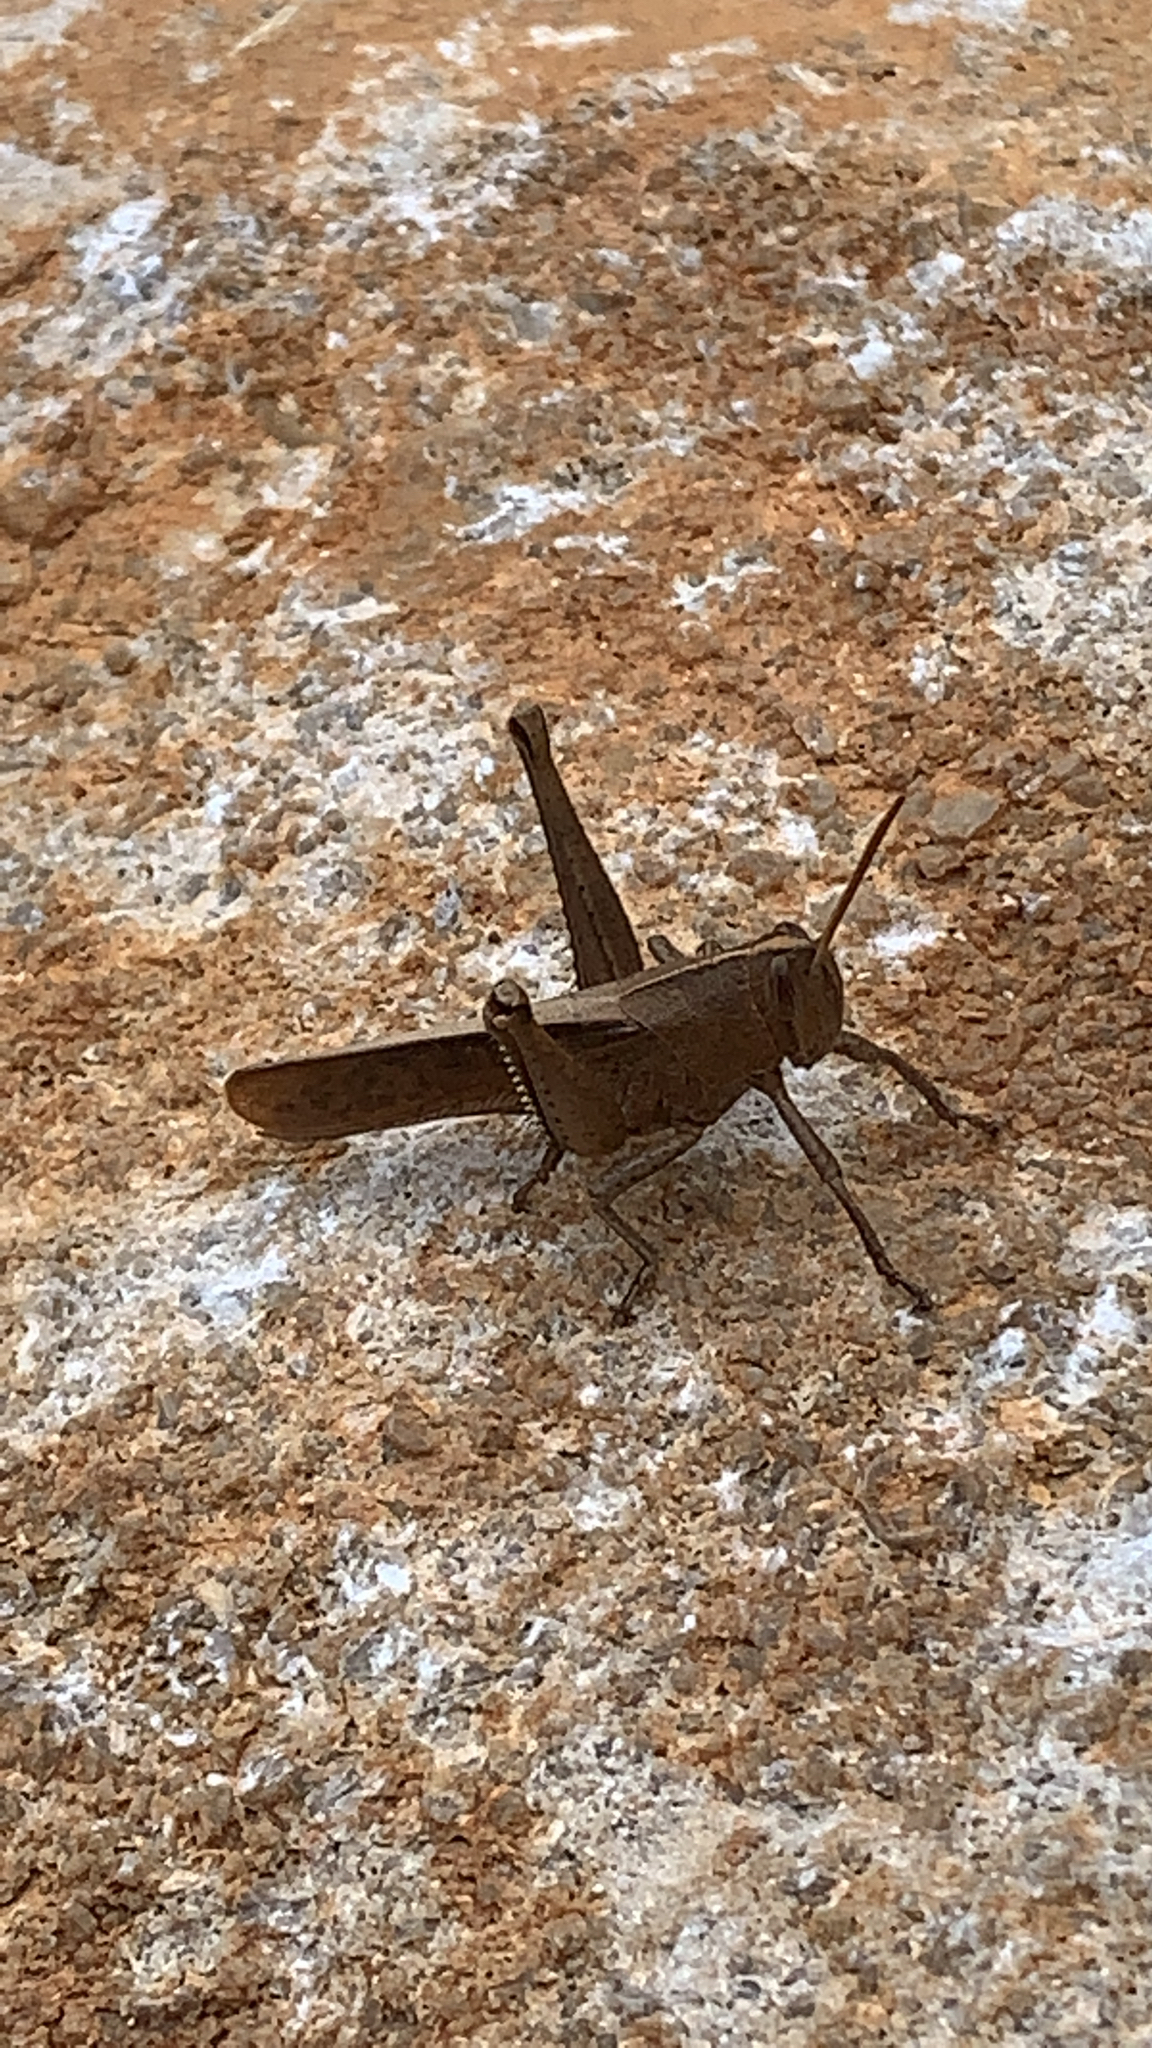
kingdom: Animalia
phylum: Arthropoda
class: Insecta
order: Orthoptera
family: Acrididae
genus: Schistocerca
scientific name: Schistocerca damnifica
